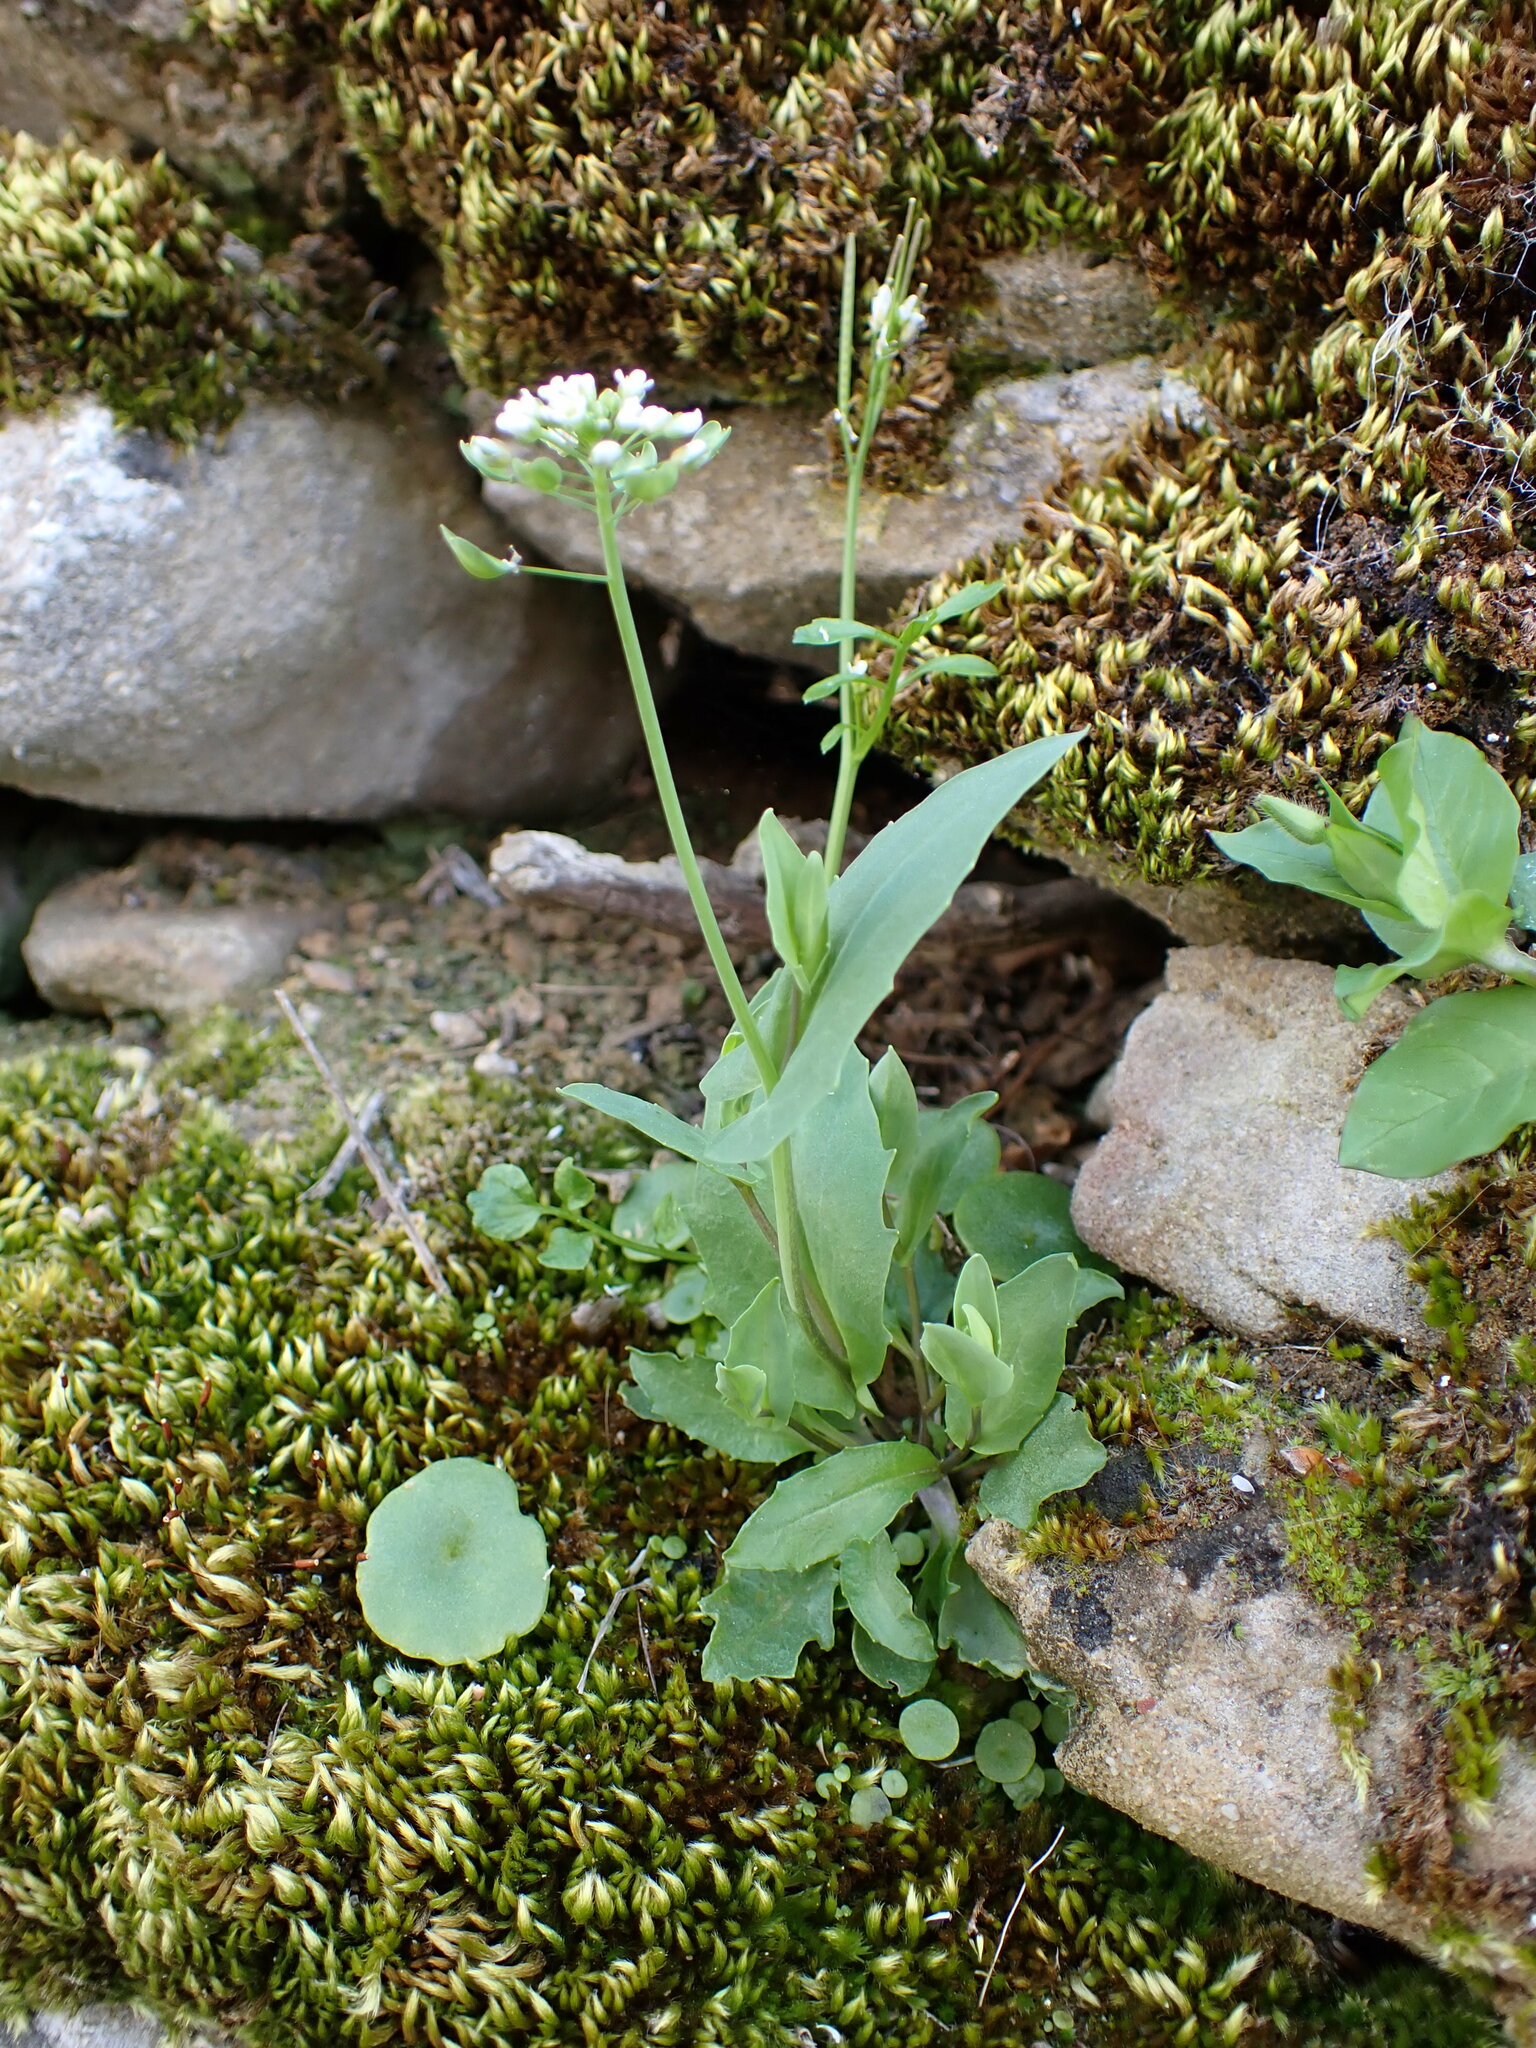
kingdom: Plantae
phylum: Tracheophyta
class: Magnoliopsida
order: Brassicales
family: Brassicaceae
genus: Noccaea
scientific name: Noccaea perfoliata
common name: Perfoliate pennycress
